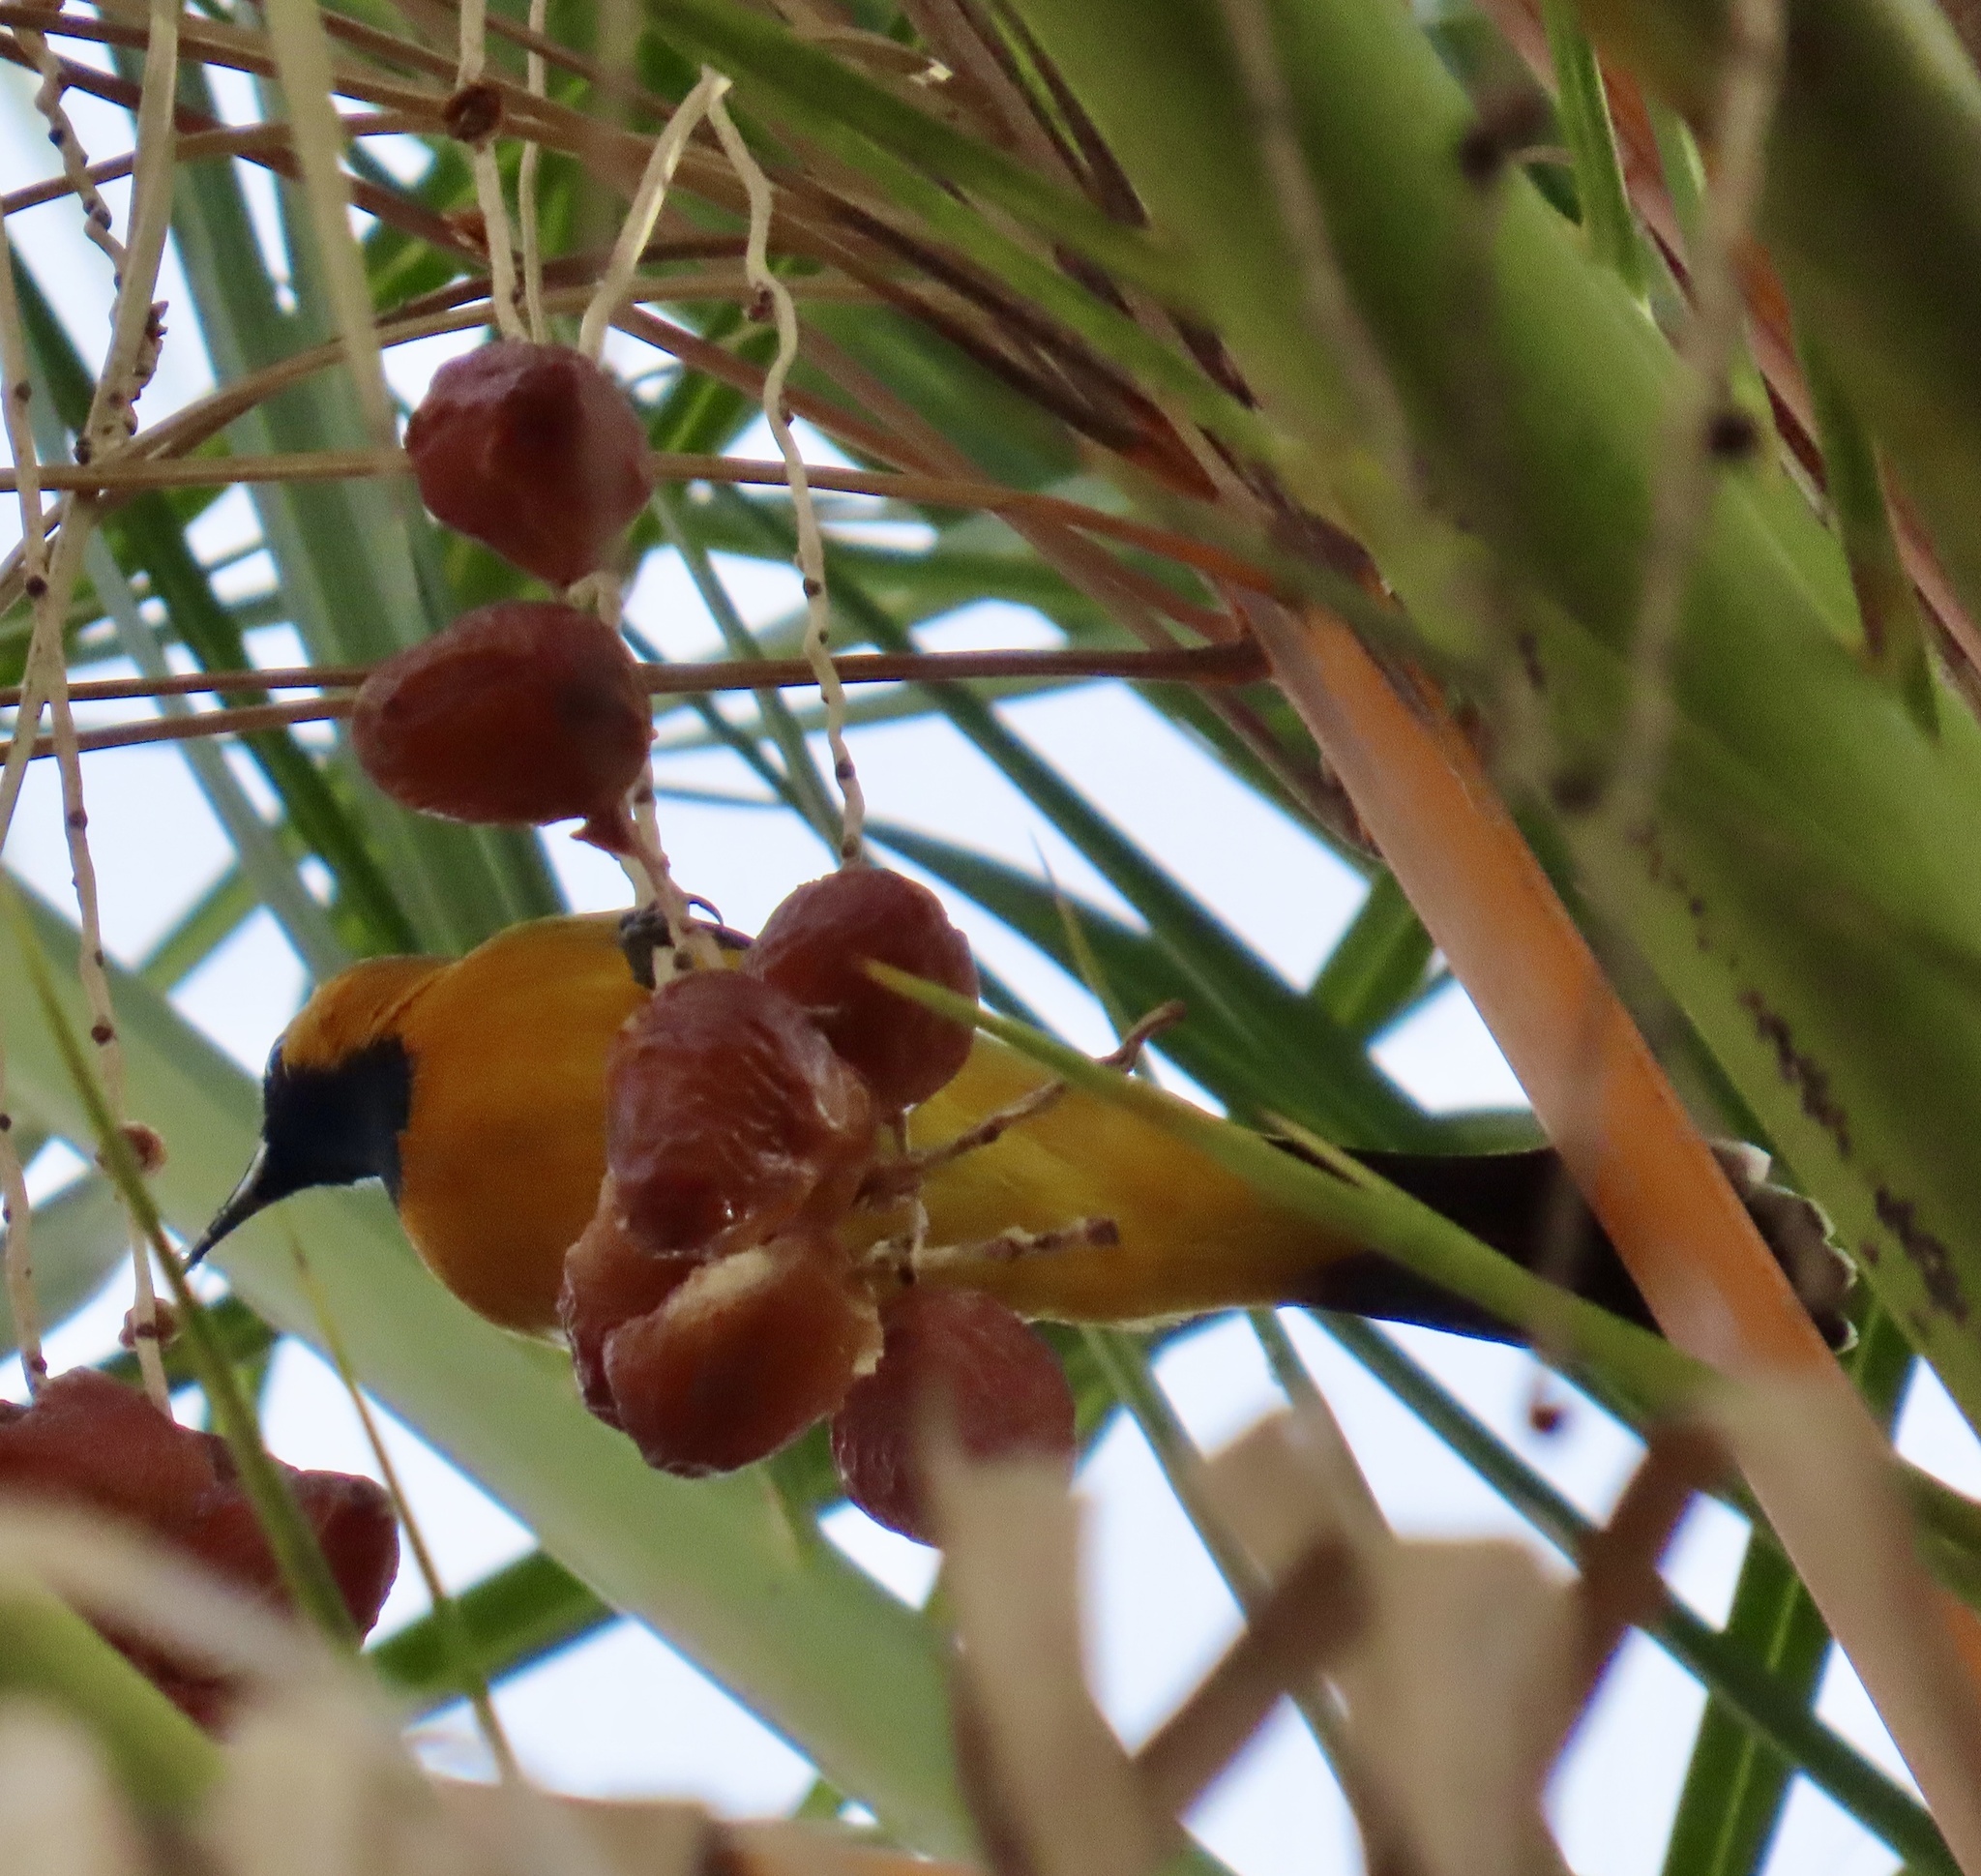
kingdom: Animalia
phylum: Chordata
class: Aves
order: Passeriformes
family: Icteridae
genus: Icterus
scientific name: Icterus cucullatus
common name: Hooded oriole
